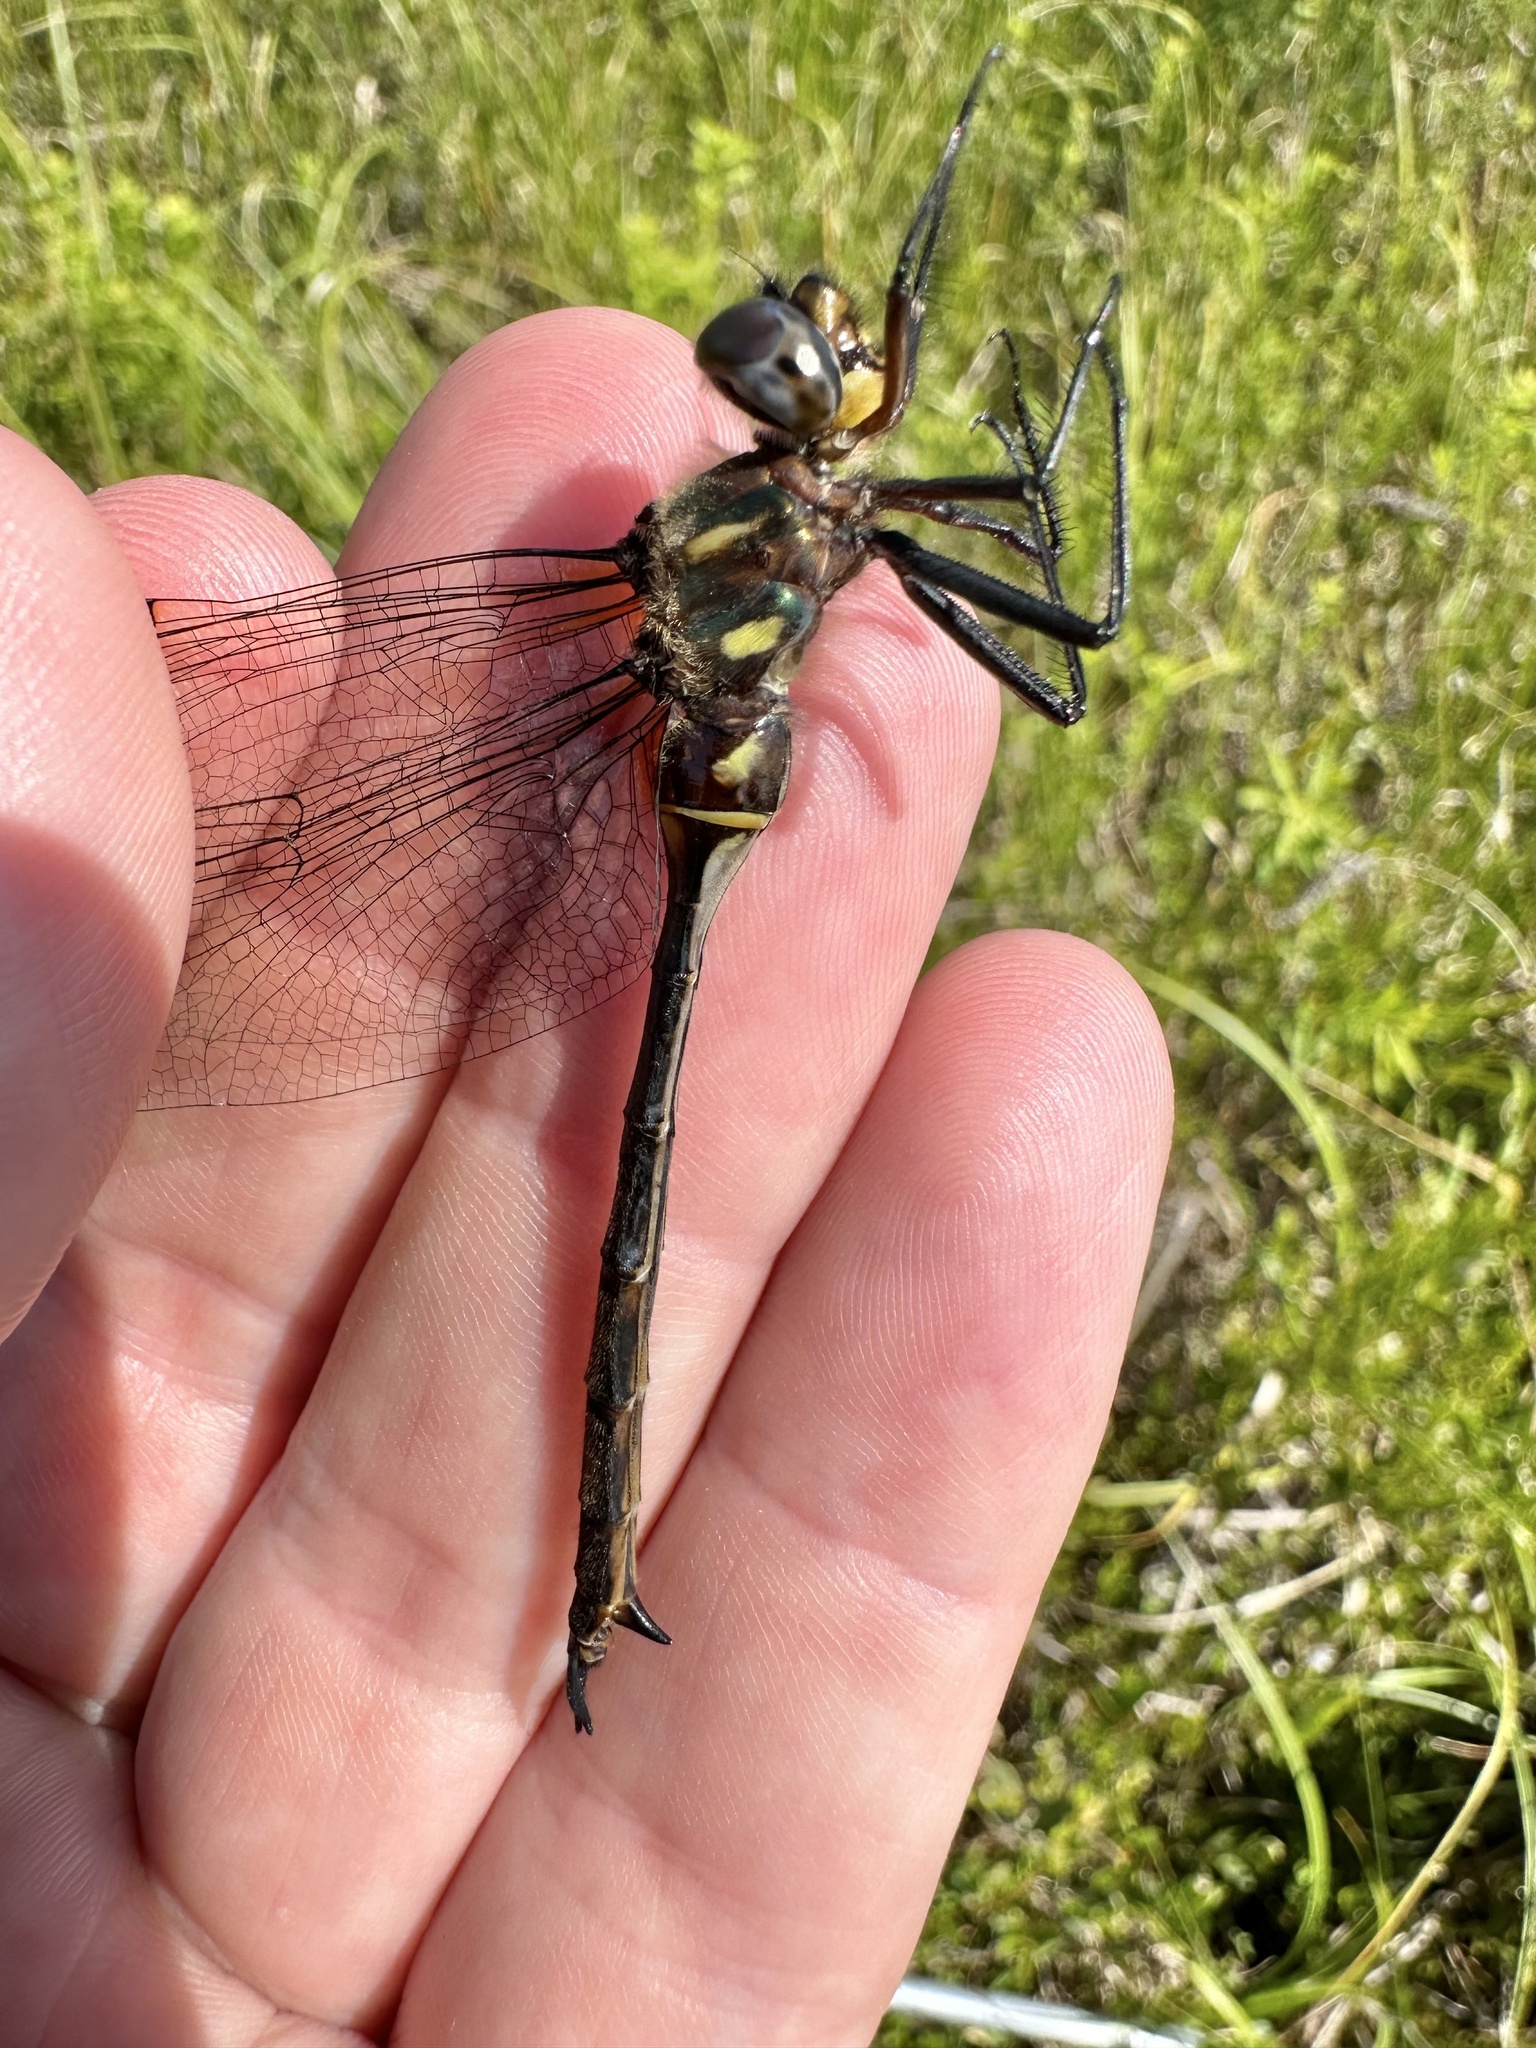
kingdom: Animalia
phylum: Arthropoda
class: Insecta
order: Odonata
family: Corduliidae
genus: Somatochlora
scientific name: Somatochlora tenebrosa
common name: Clamp-tipped emerald
